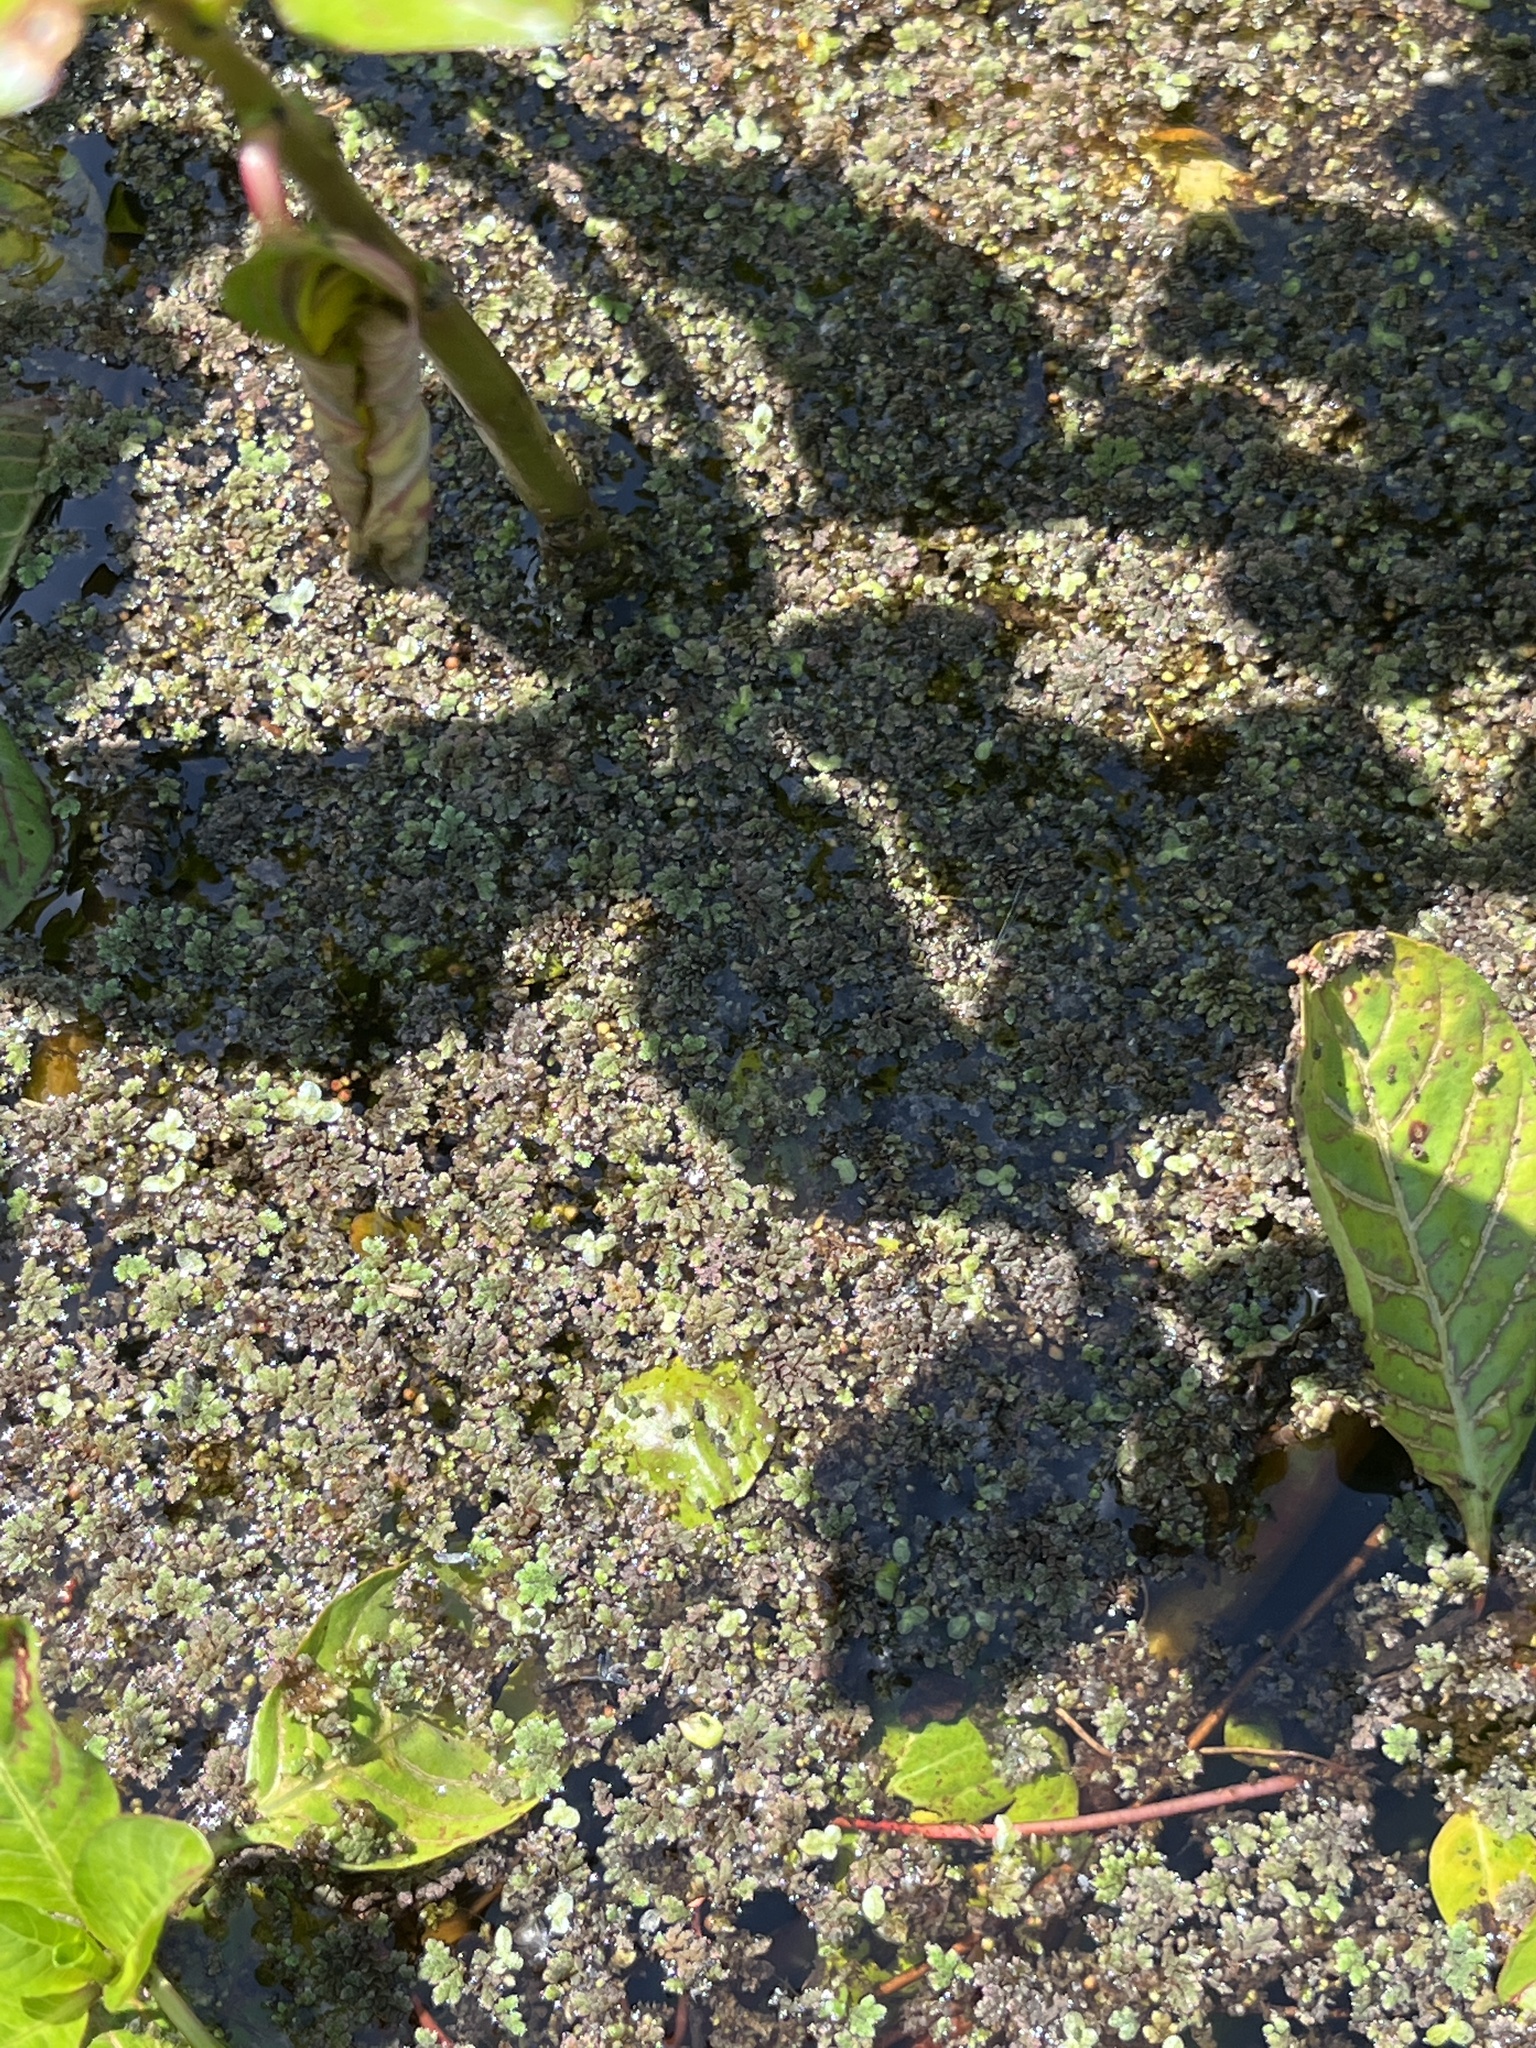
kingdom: Plantae
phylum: Tracheophyta
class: Polypodiopsida
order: Salviniales
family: Salviniaceae
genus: Azolla
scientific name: Azolla filiculoides
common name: Water fern
